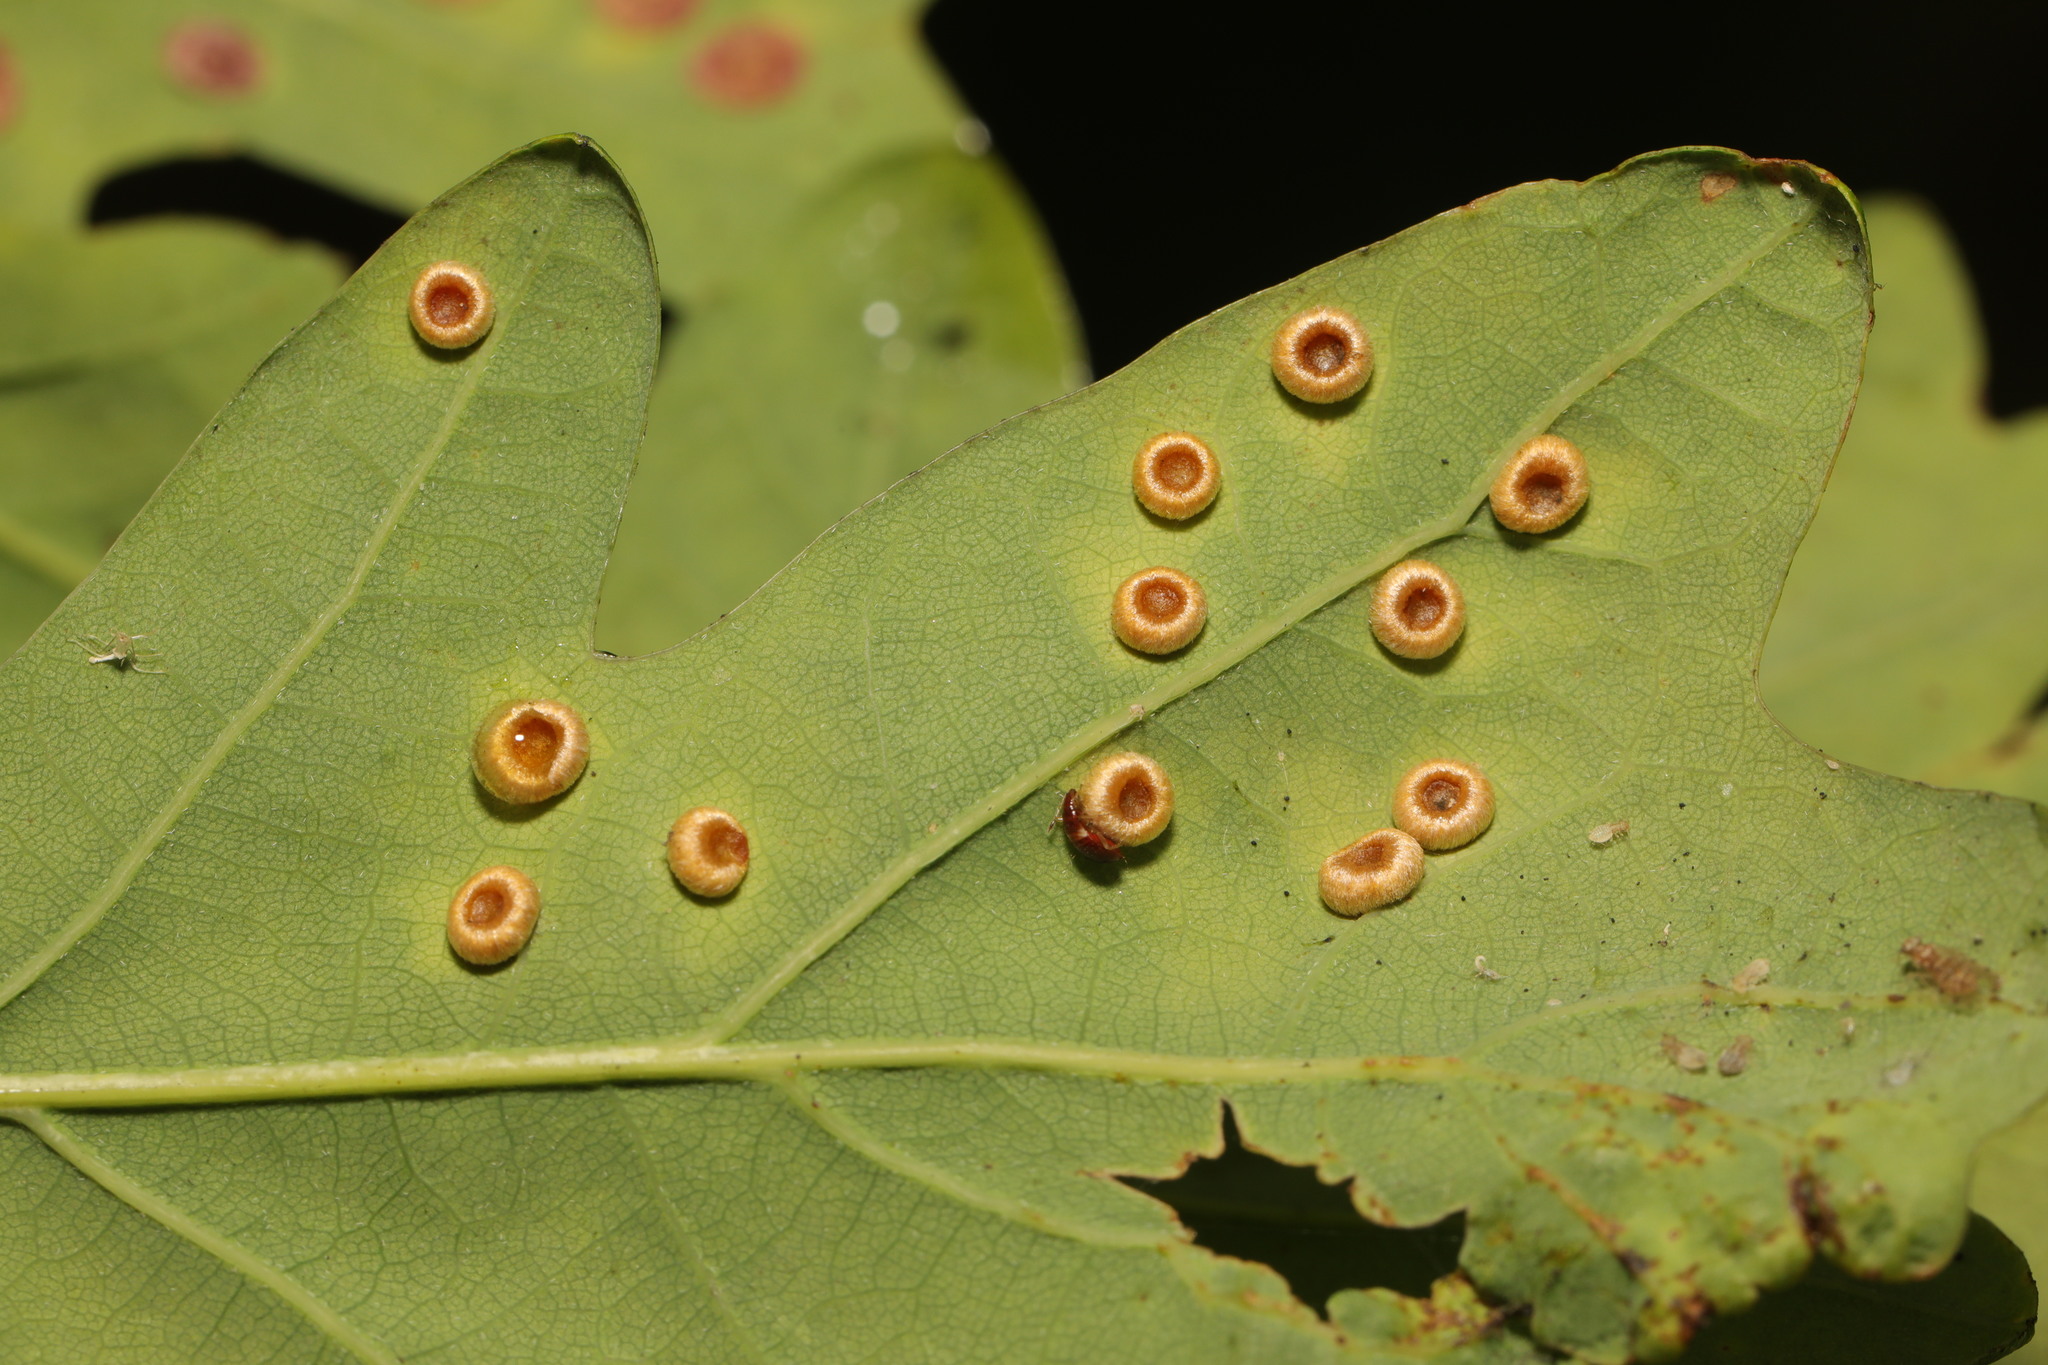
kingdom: Animalia
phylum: Arthropoda
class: Insecta
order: Hymenoptera
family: Cynipidae
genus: Neuroterus
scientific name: Neuroterus numismalis
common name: Silk-button spangle gall
